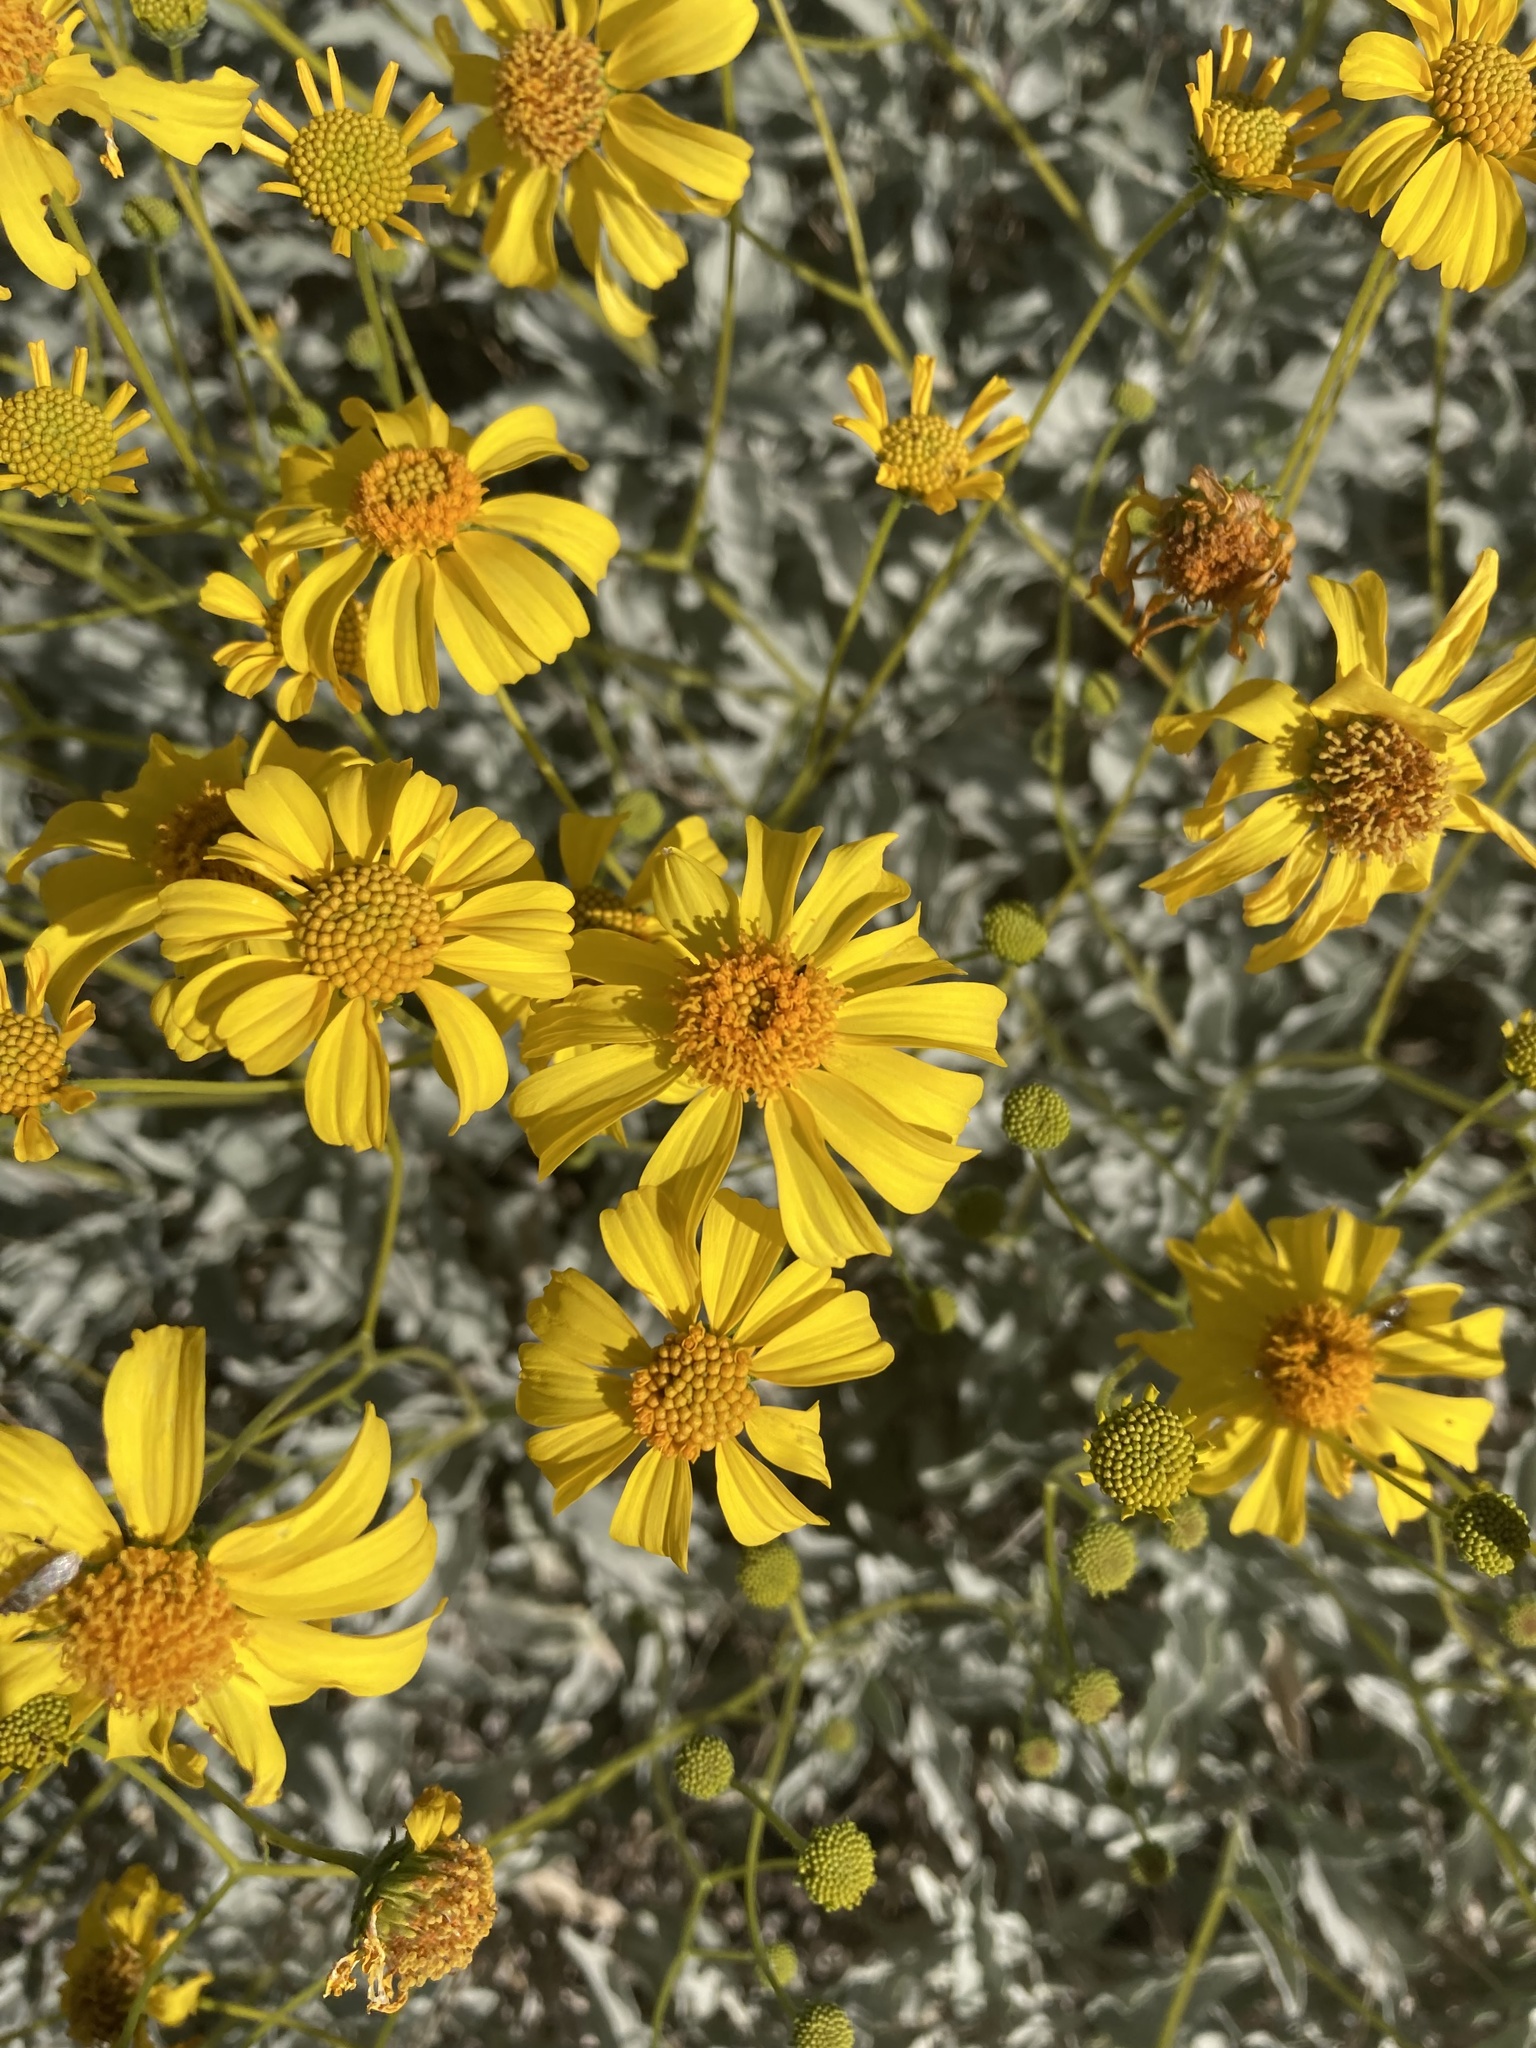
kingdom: Plantae
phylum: Tracheophyta
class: Magnoliopsida
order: Asterales
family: Asteraceae
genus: Encelia
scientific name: Encelia farinosa
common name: Brittlebush
